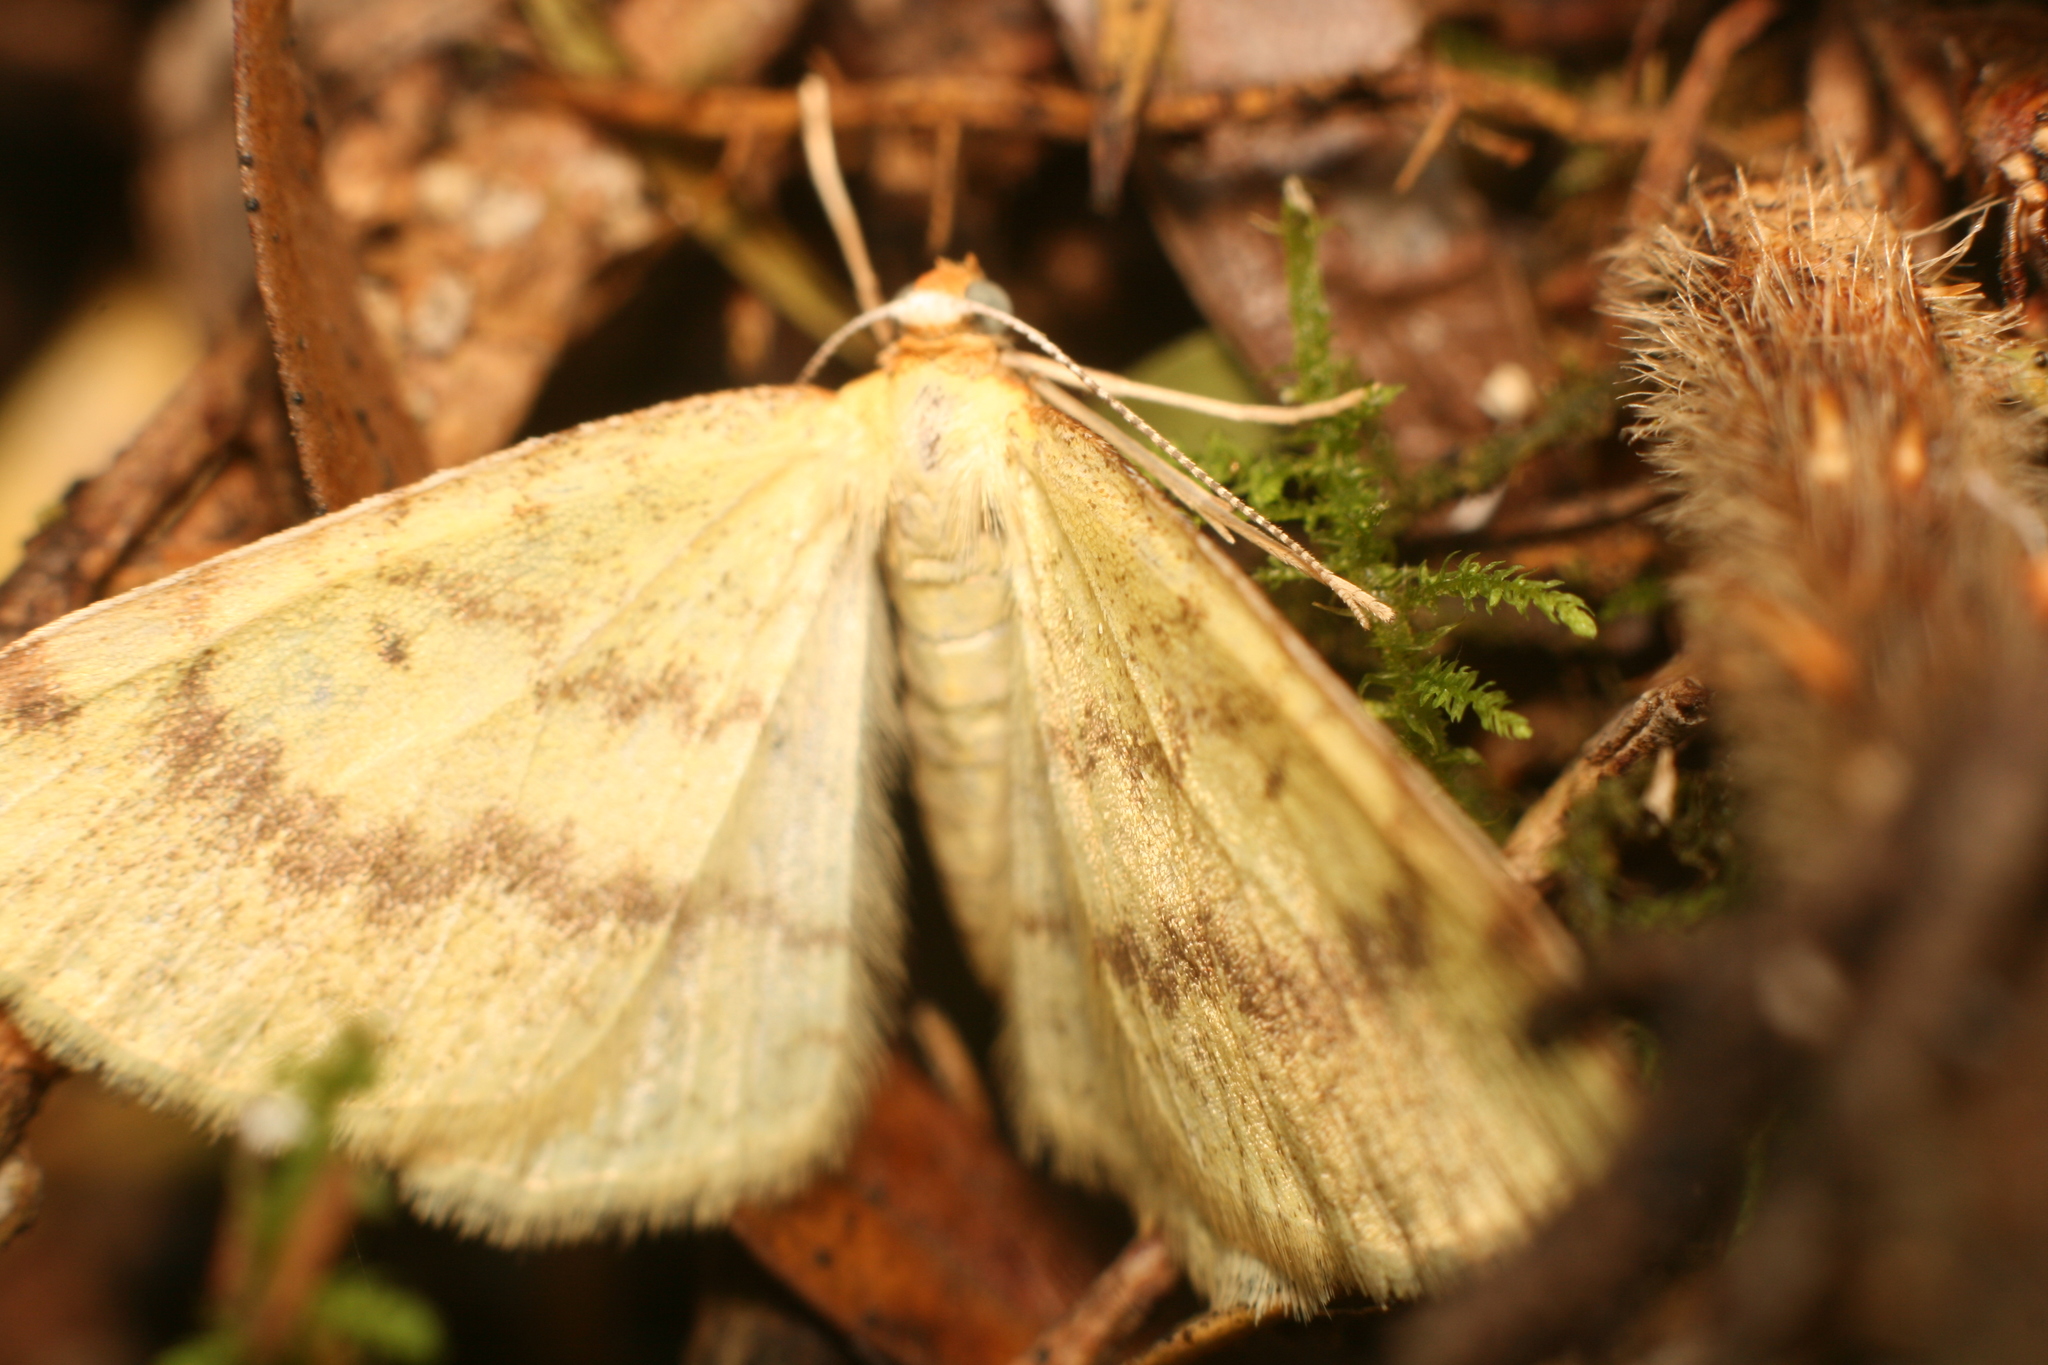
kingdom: Animalia
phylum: Arthropoda
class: Insecta
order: Lepidoptera
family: Geometridae
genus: Epiphryne
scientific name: Epiphryne undosata
